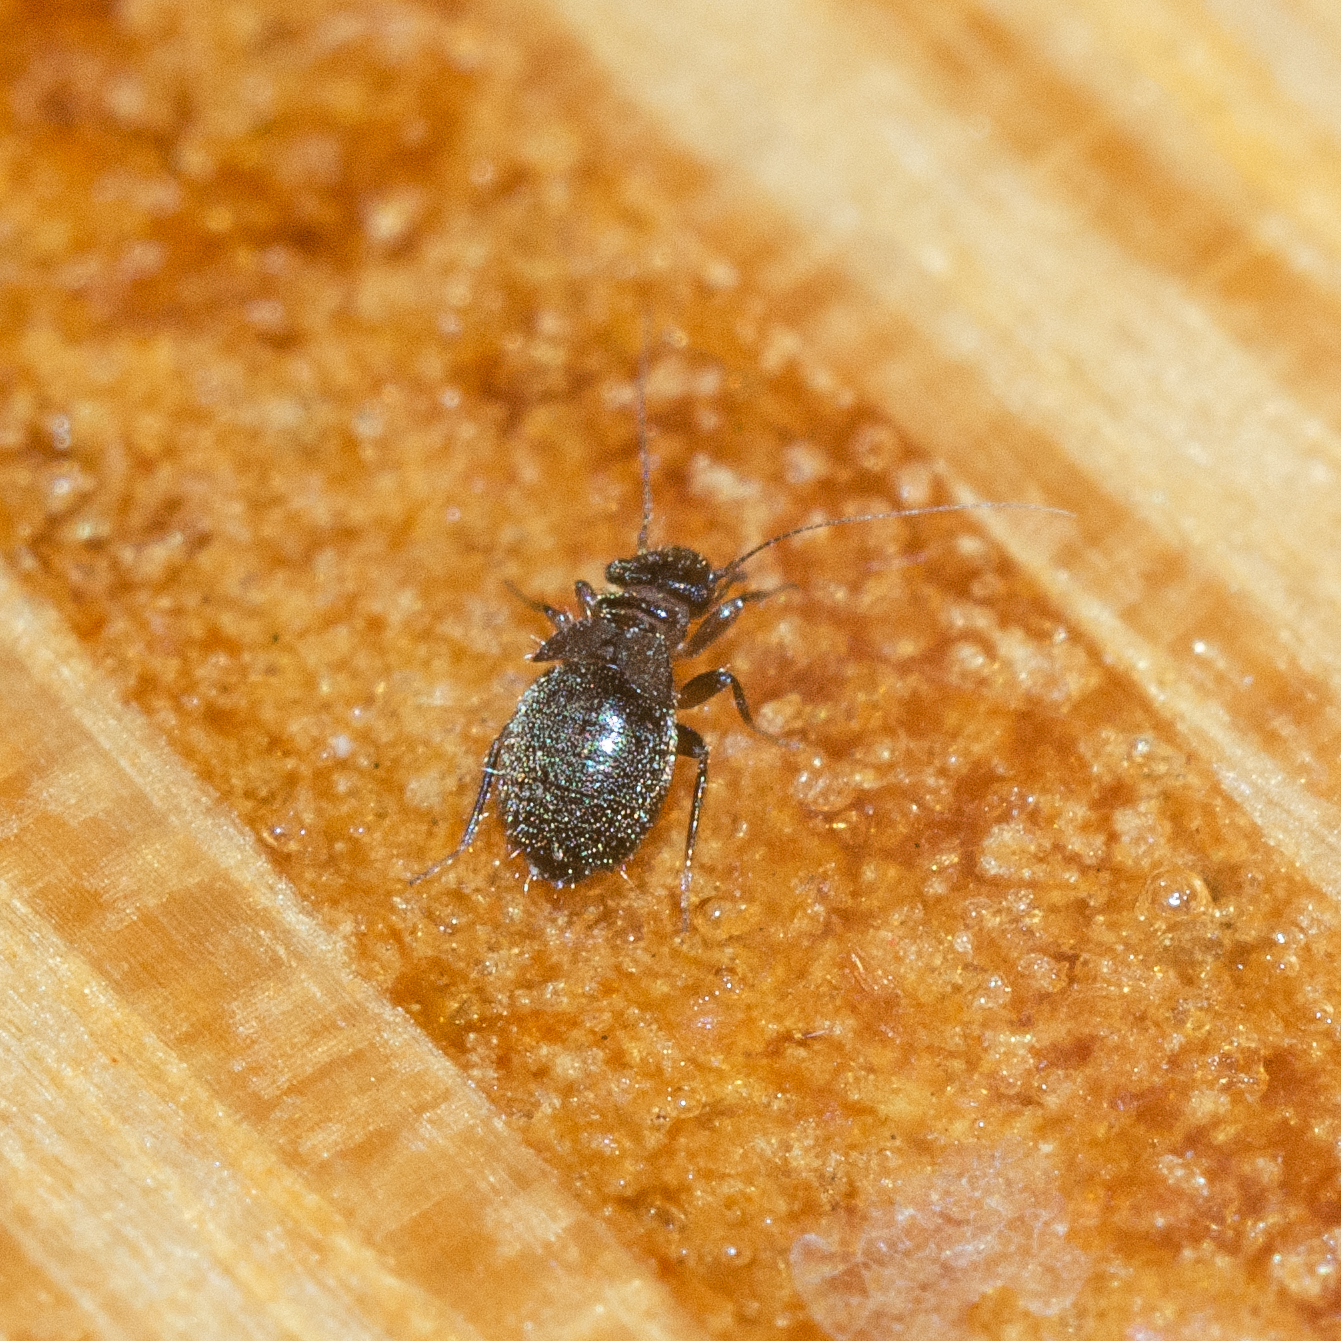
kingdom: Animalia
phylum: Arthropoda
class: Insecta
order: Psocodea
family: Trogiidae
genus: Lepinotus
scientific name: Lepinotus
